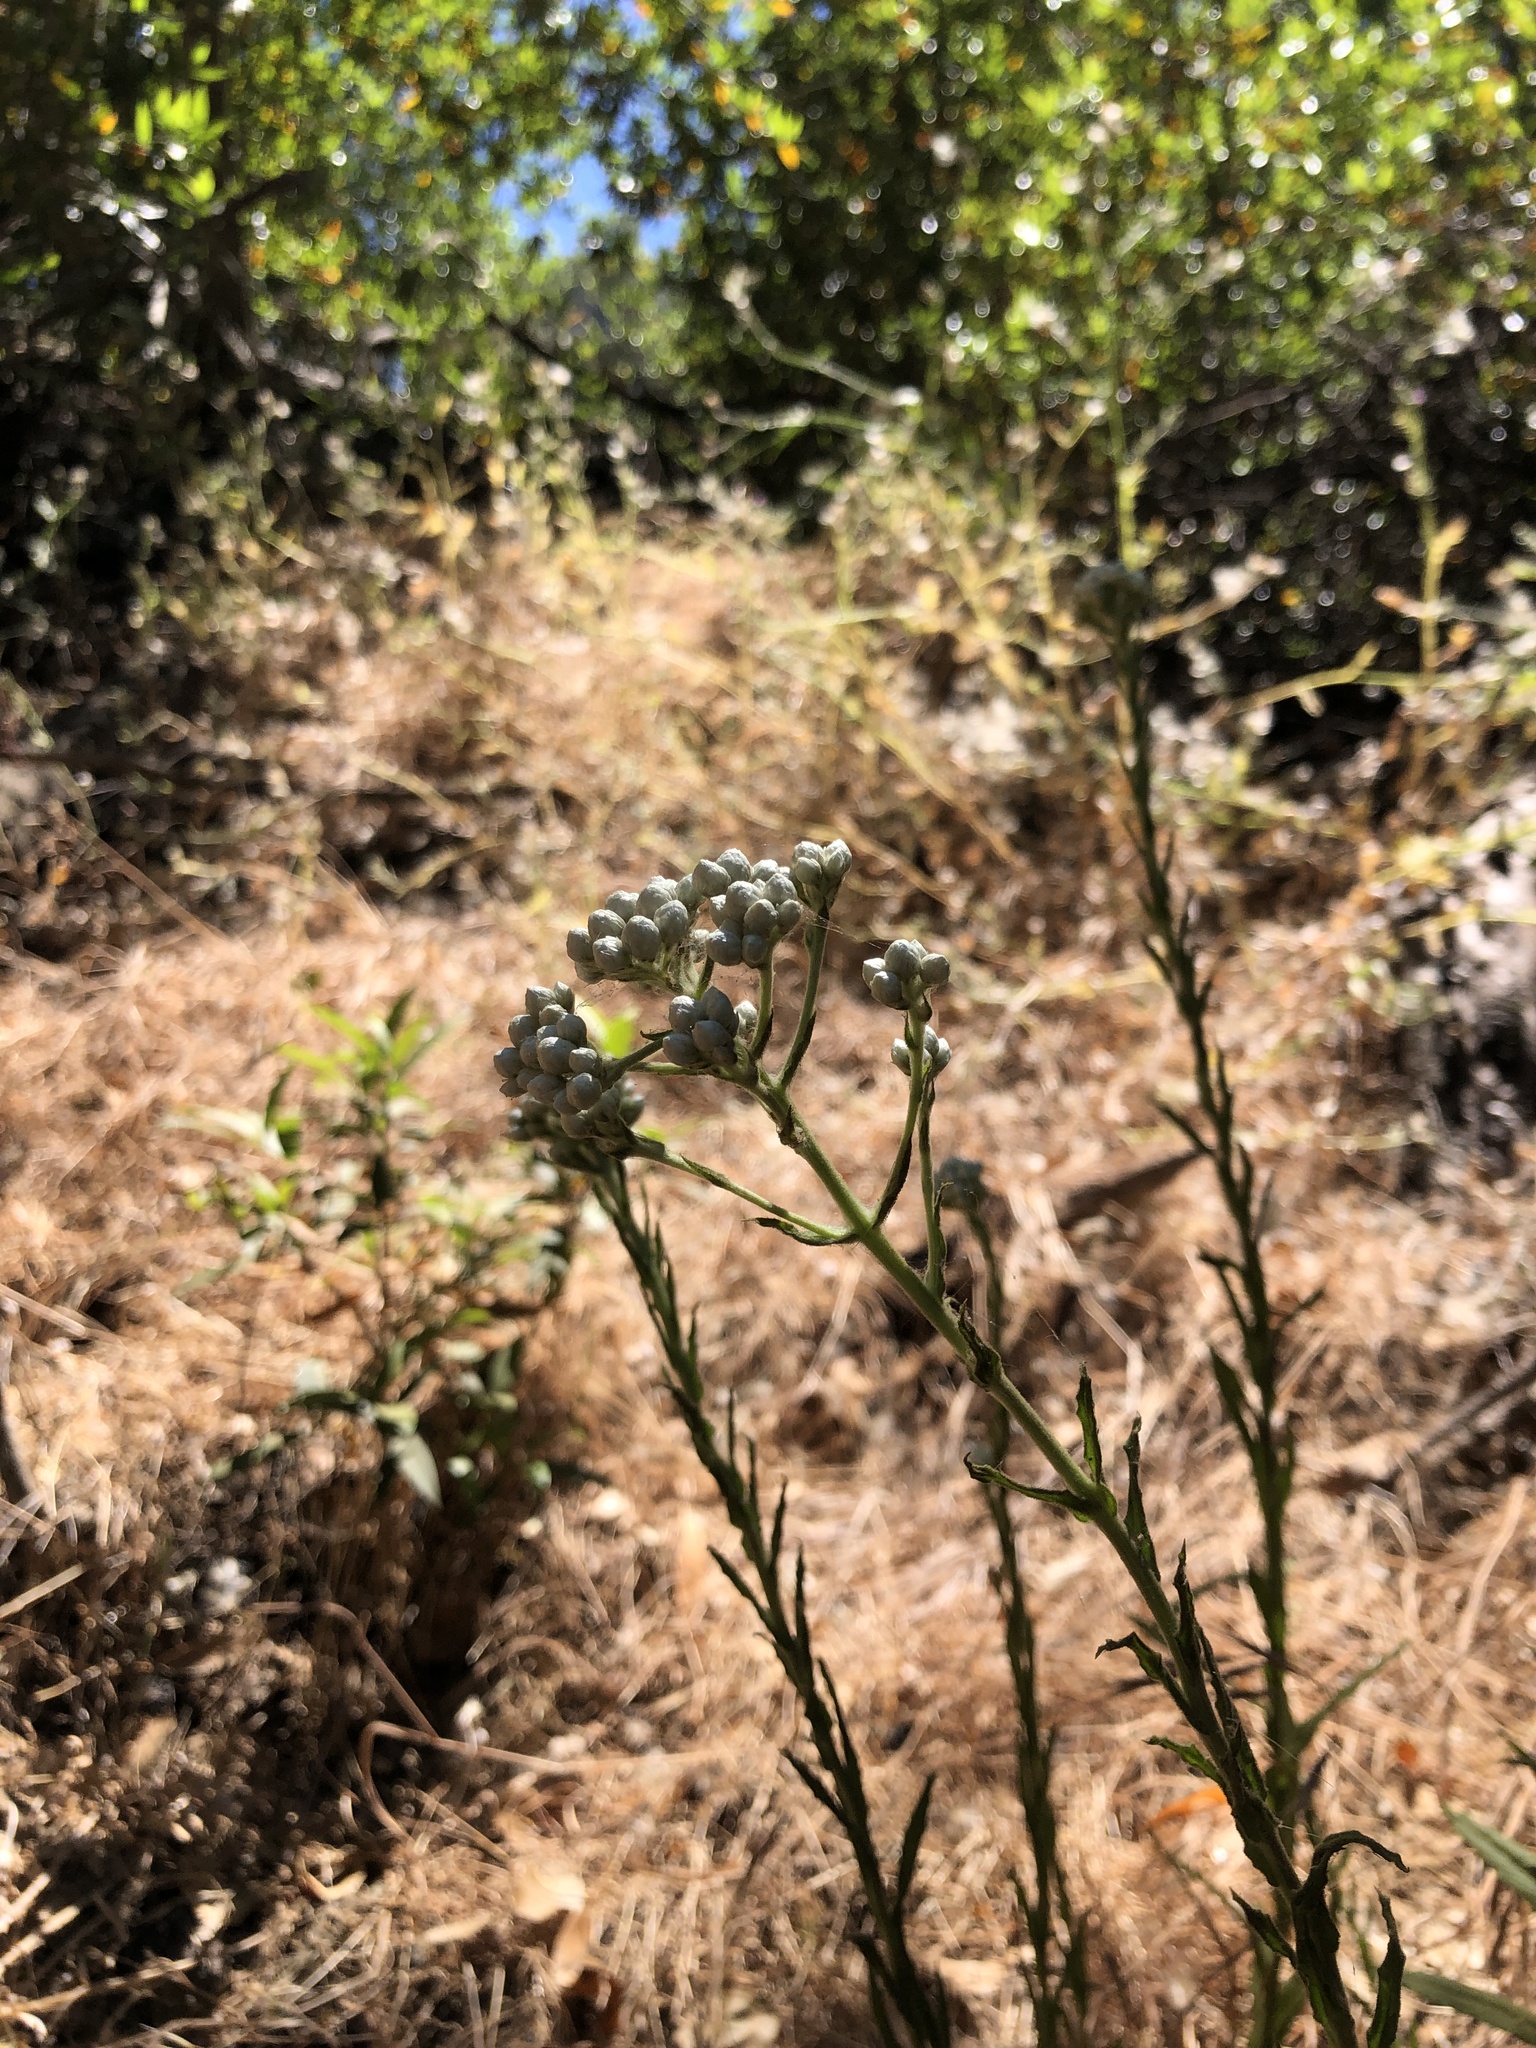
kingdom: Plantae
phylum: Tracheophyta
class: Magnoliopsida
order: Asterales
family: Asteraceae
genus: Pseudognaphalium
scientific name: Pseudognaphalium californicum
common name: California rabbit-tobacco
